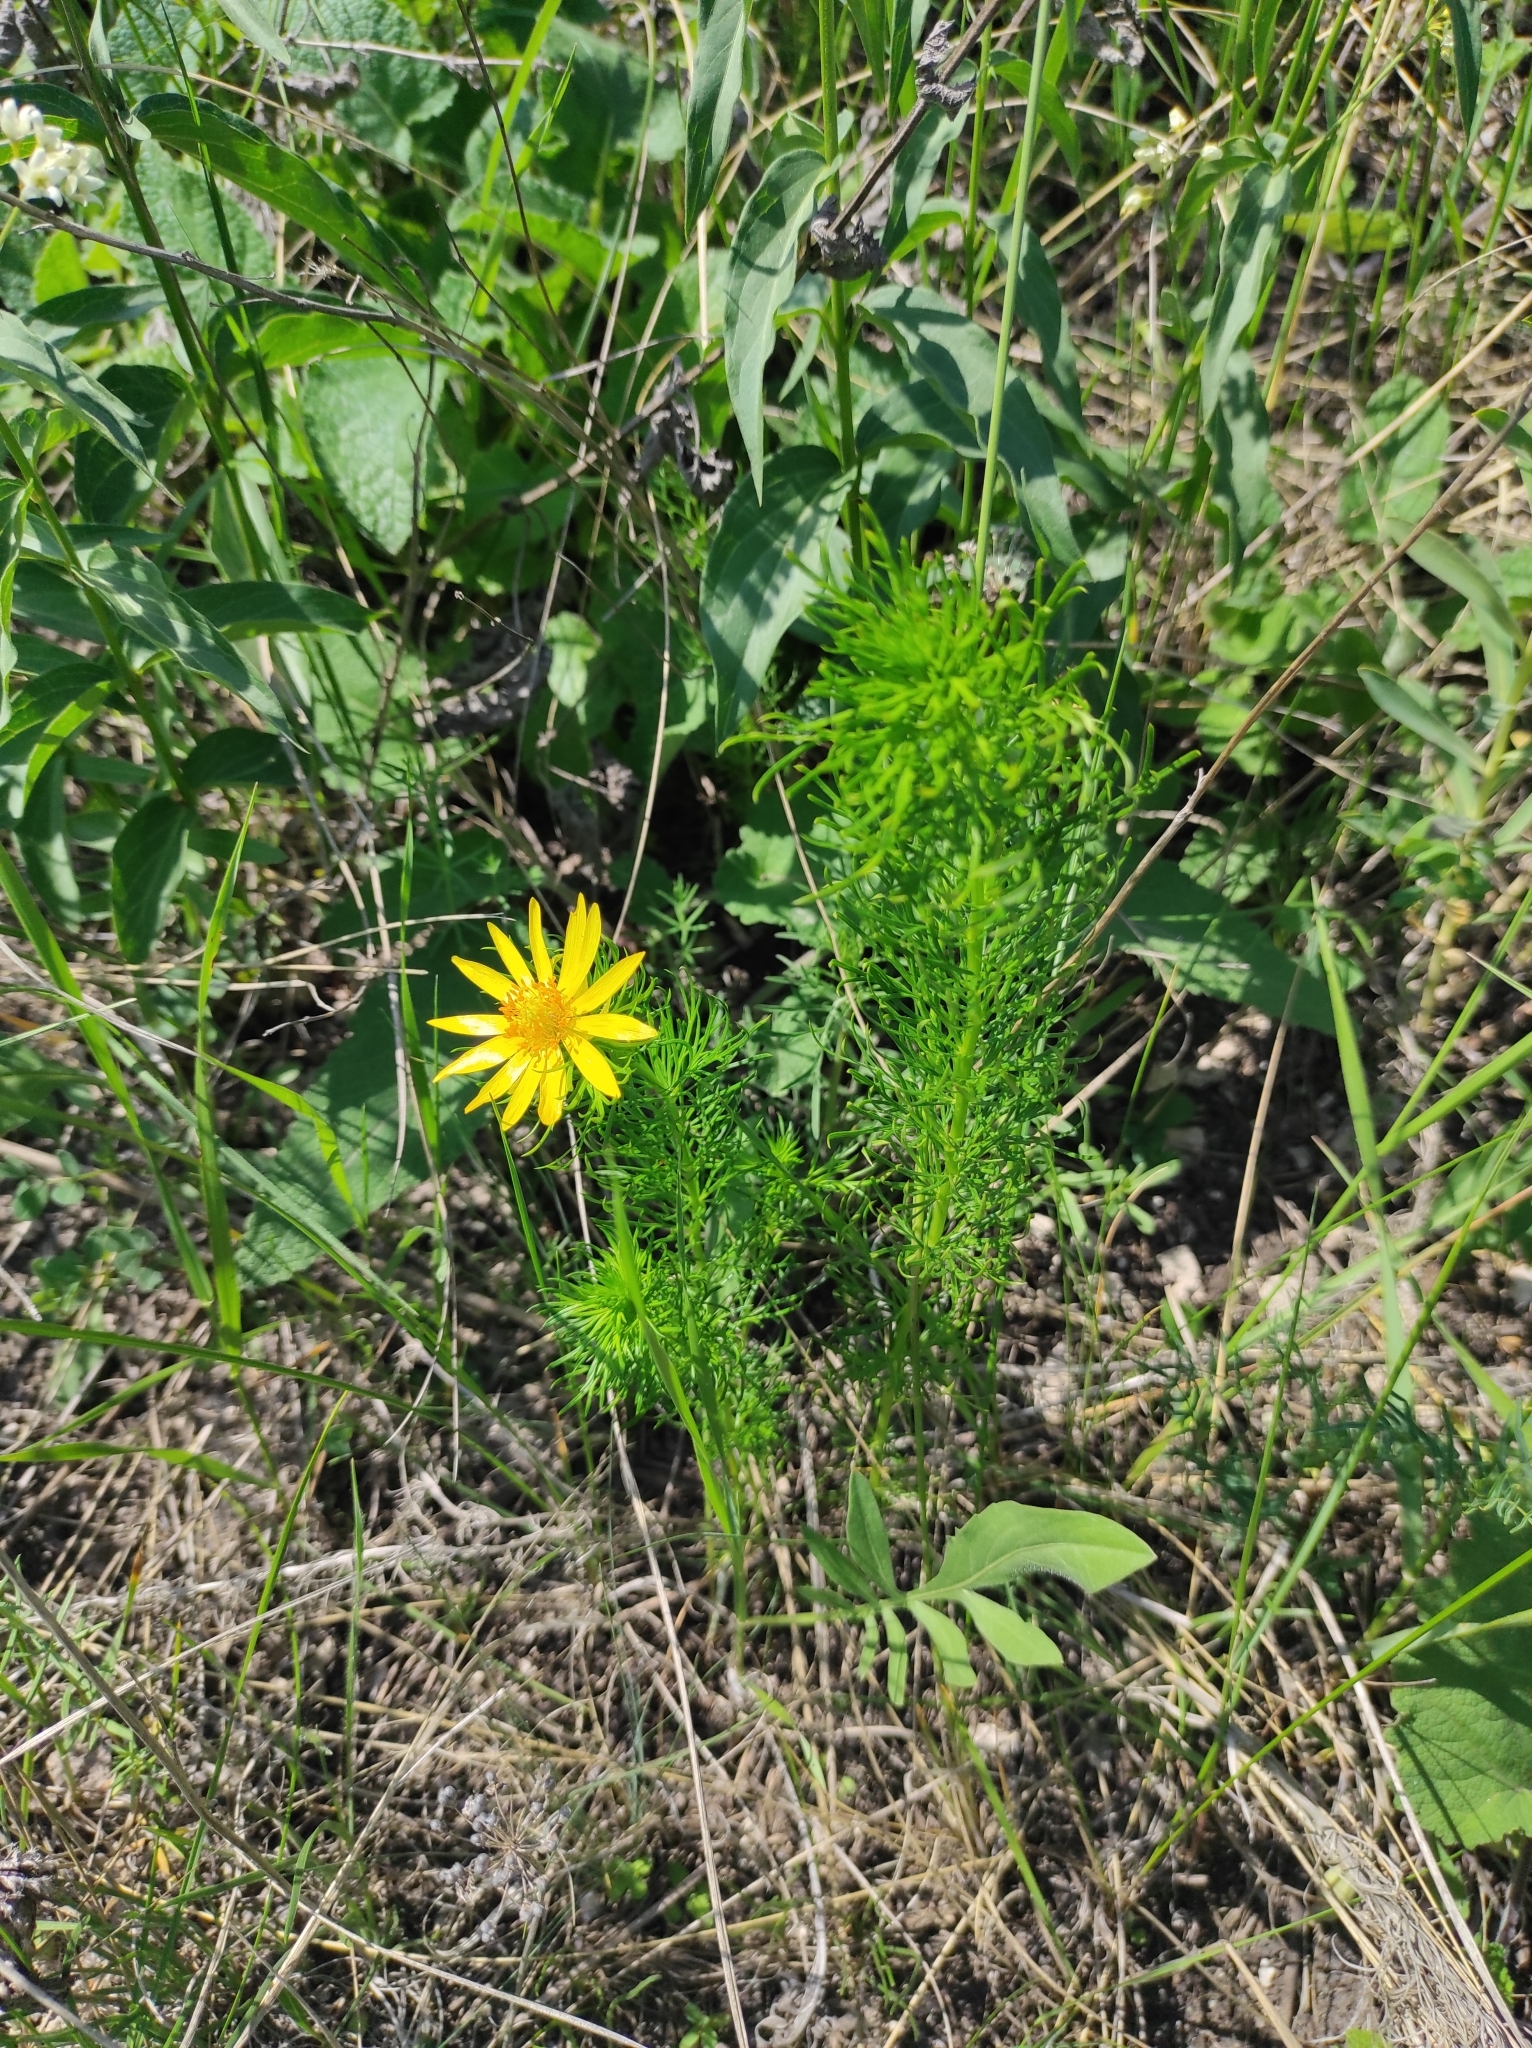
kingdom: Plantae
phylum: Tracheophyta
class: Magnoliopsida
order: Ranunculales
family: Ranunculaceae
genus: Adonis
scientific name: Adonis vernalis
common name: Yellow pheasants-eye
